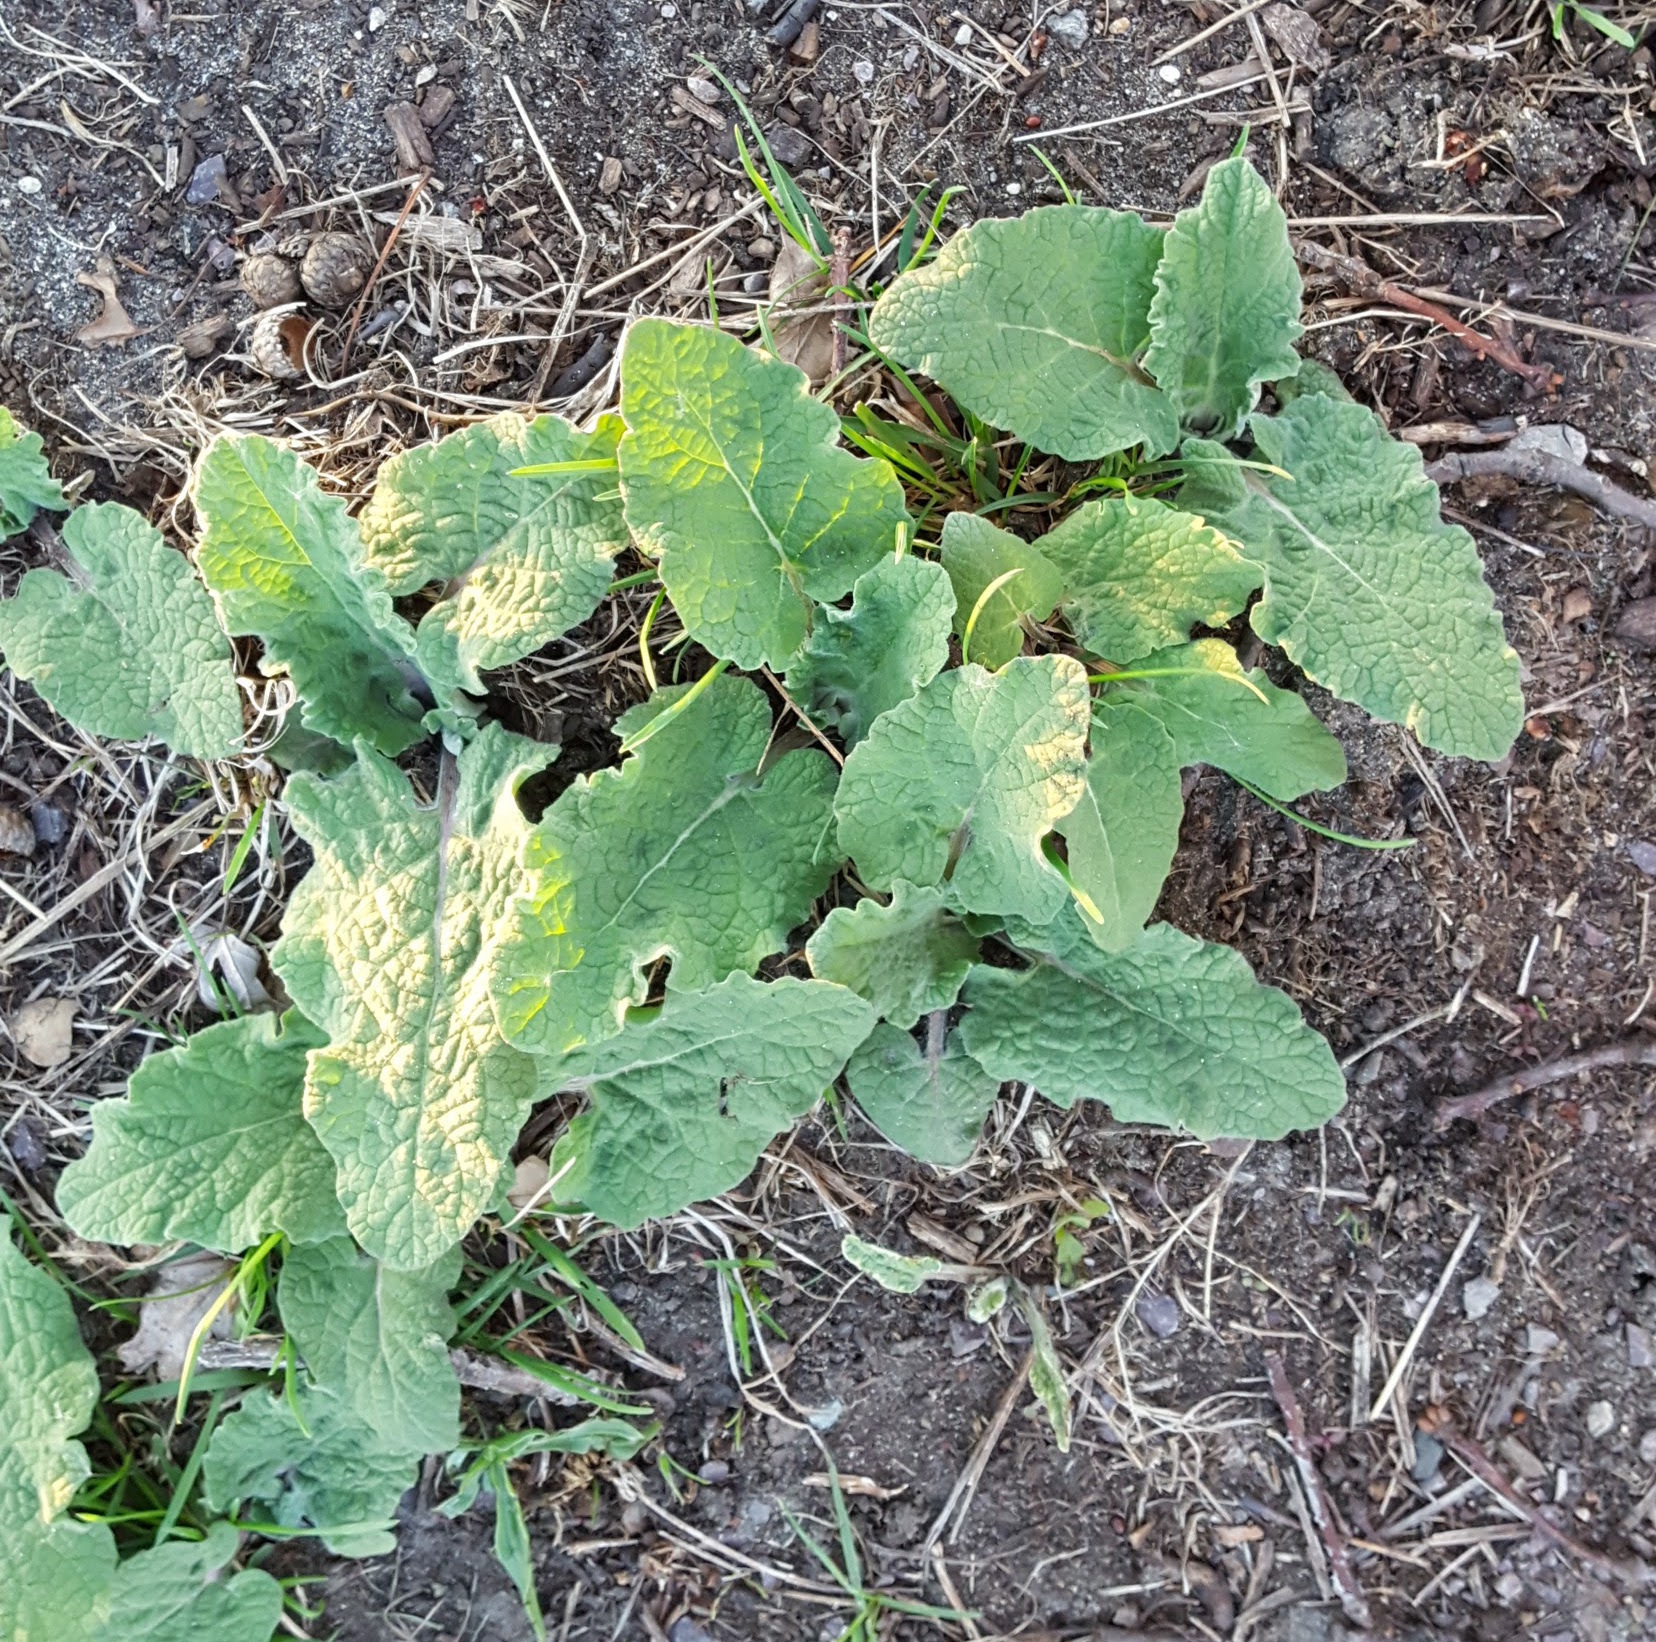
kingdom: Plantae
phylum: Tracheophyta
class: Magnoliopsida
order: Asterales
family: Asteraceae
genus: Arctium
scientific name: Arctium
